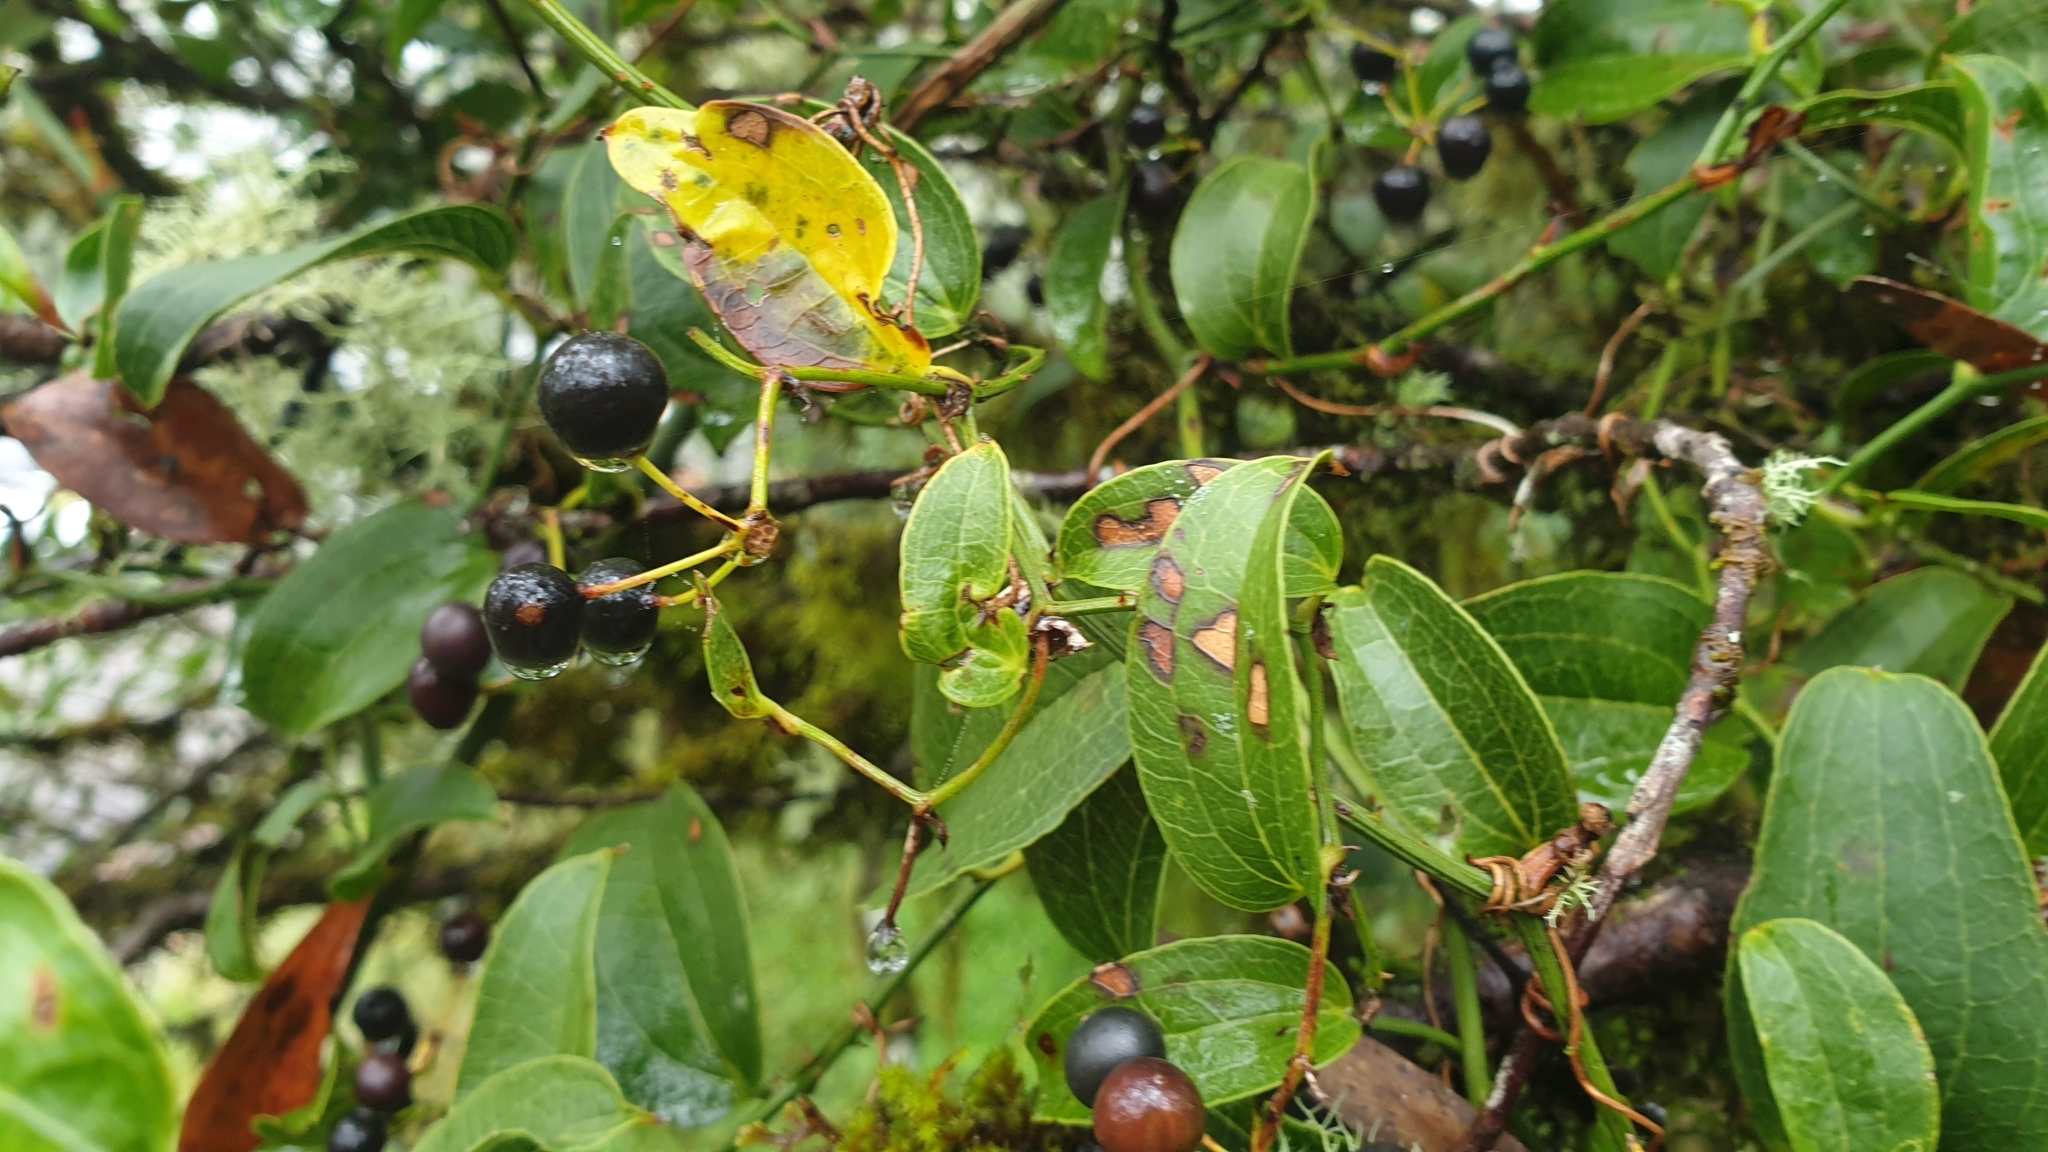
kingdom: Plantae
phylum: Tracheophyta
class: Liliopsida
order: Liliales
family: Smilacaceae
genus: Smilax
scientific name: Smilax australis
